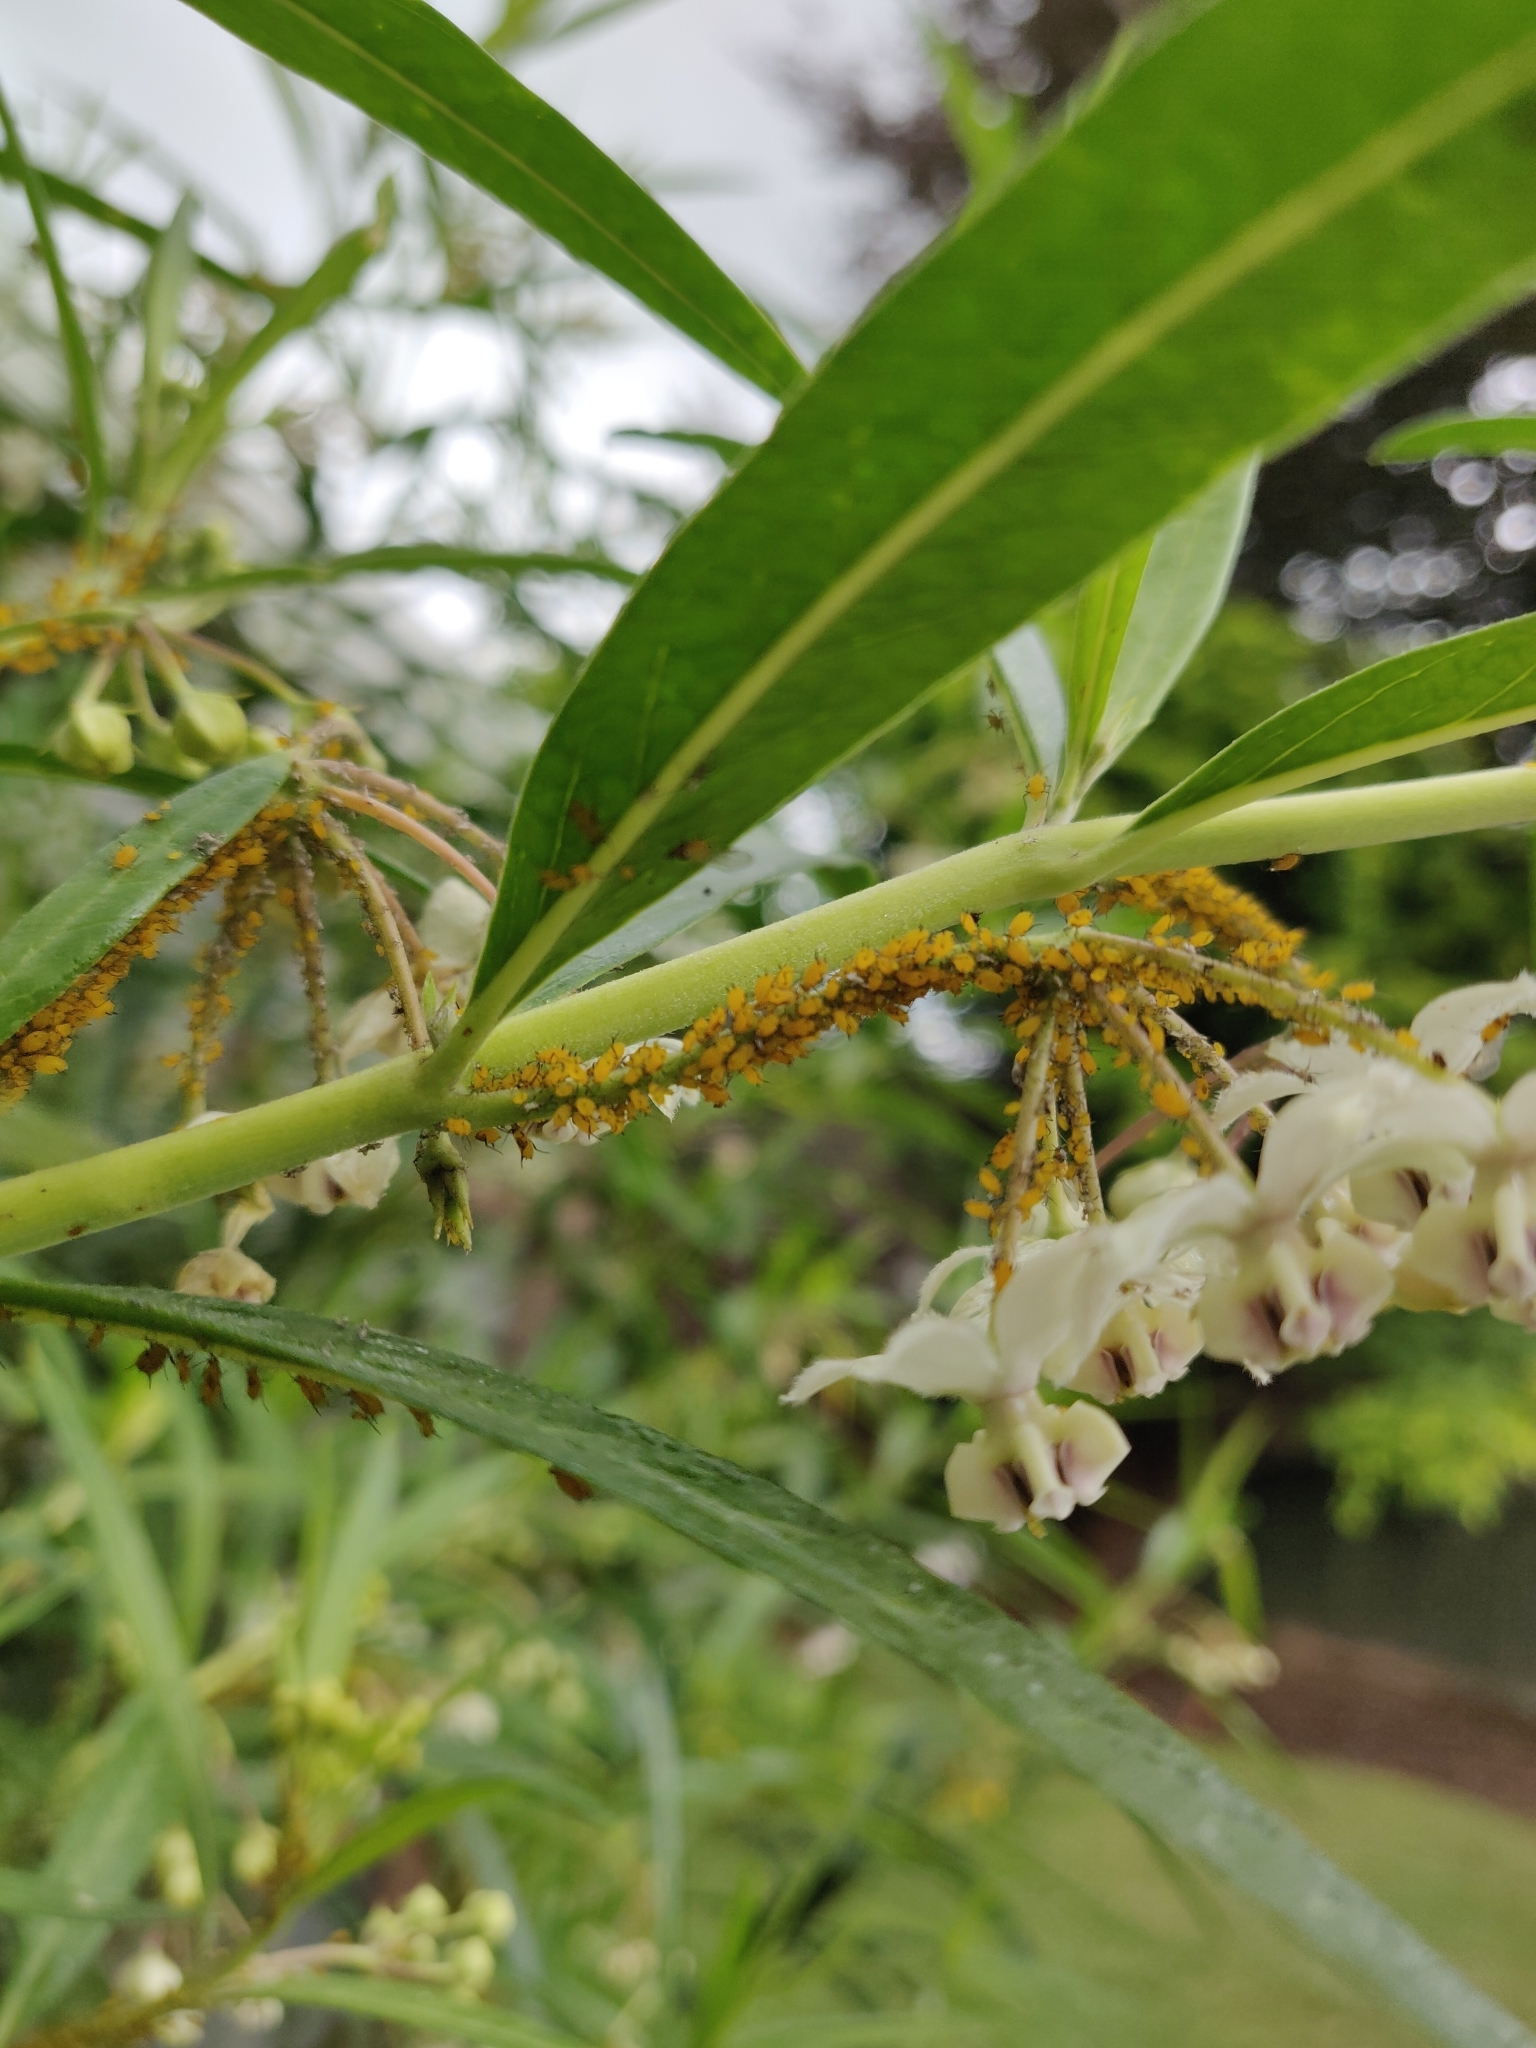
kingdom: Animalia
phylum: Arthropoda
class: Insecta
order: Hemiptera
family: Aphididae
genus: Aphis
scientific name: Aphis nerii
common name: Oleander aphid
